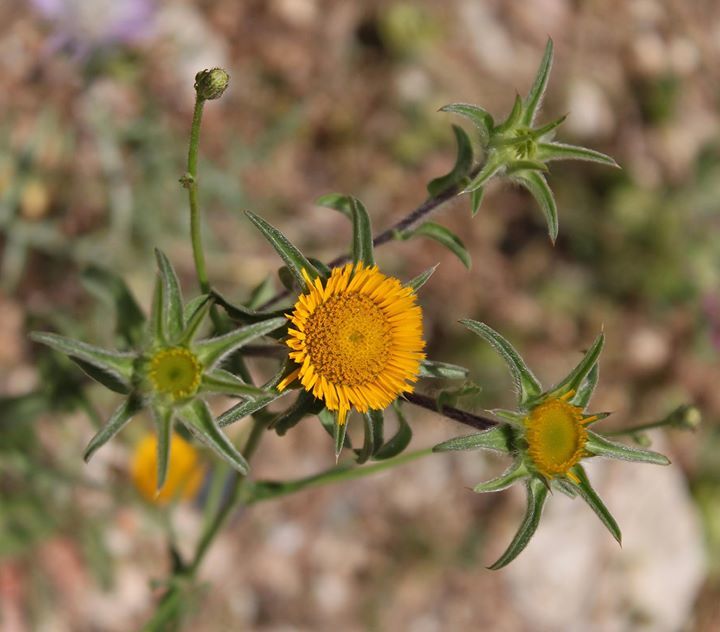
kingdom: Plantae
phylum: Tracheophyta
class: Magnoliopsida
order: Asterales
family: Asteraceae
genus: Pallenis
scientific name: Pallenis spinosa
